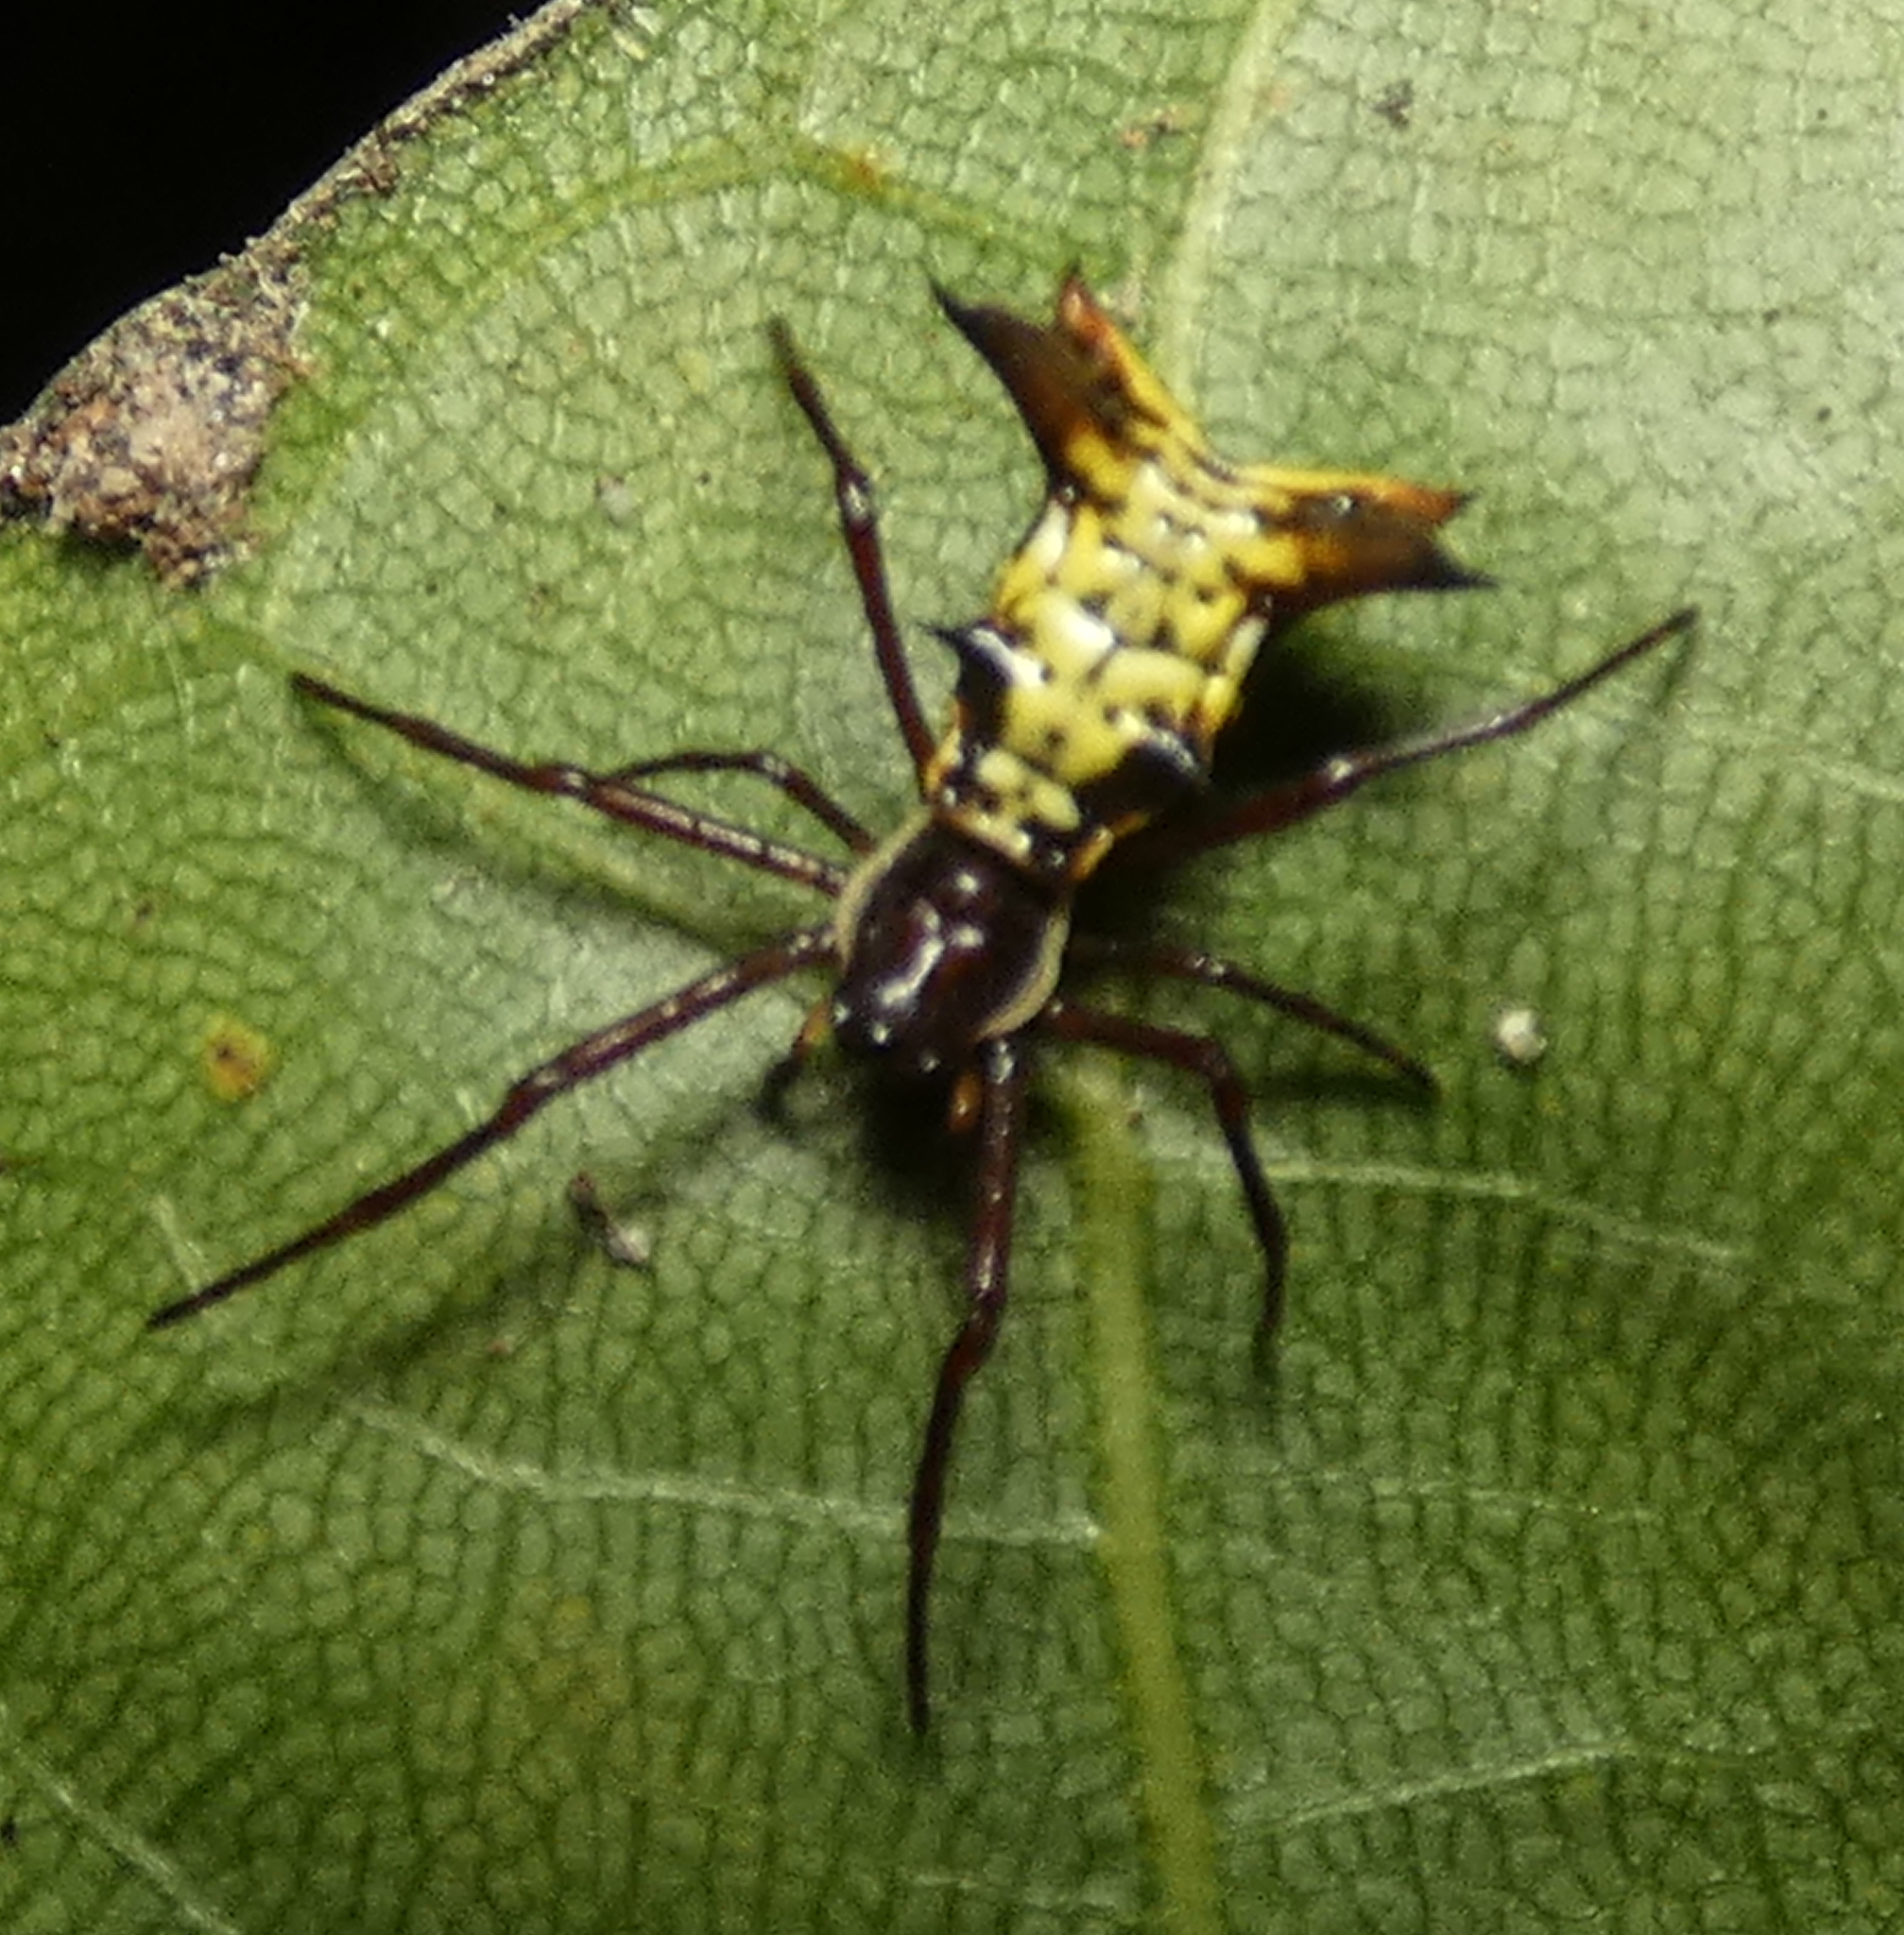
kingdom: Animalia
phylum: Arthropoda
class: Arachnida
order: Araneae
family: Araneidae
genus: Micrathena
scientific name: Micrathena fissispina
